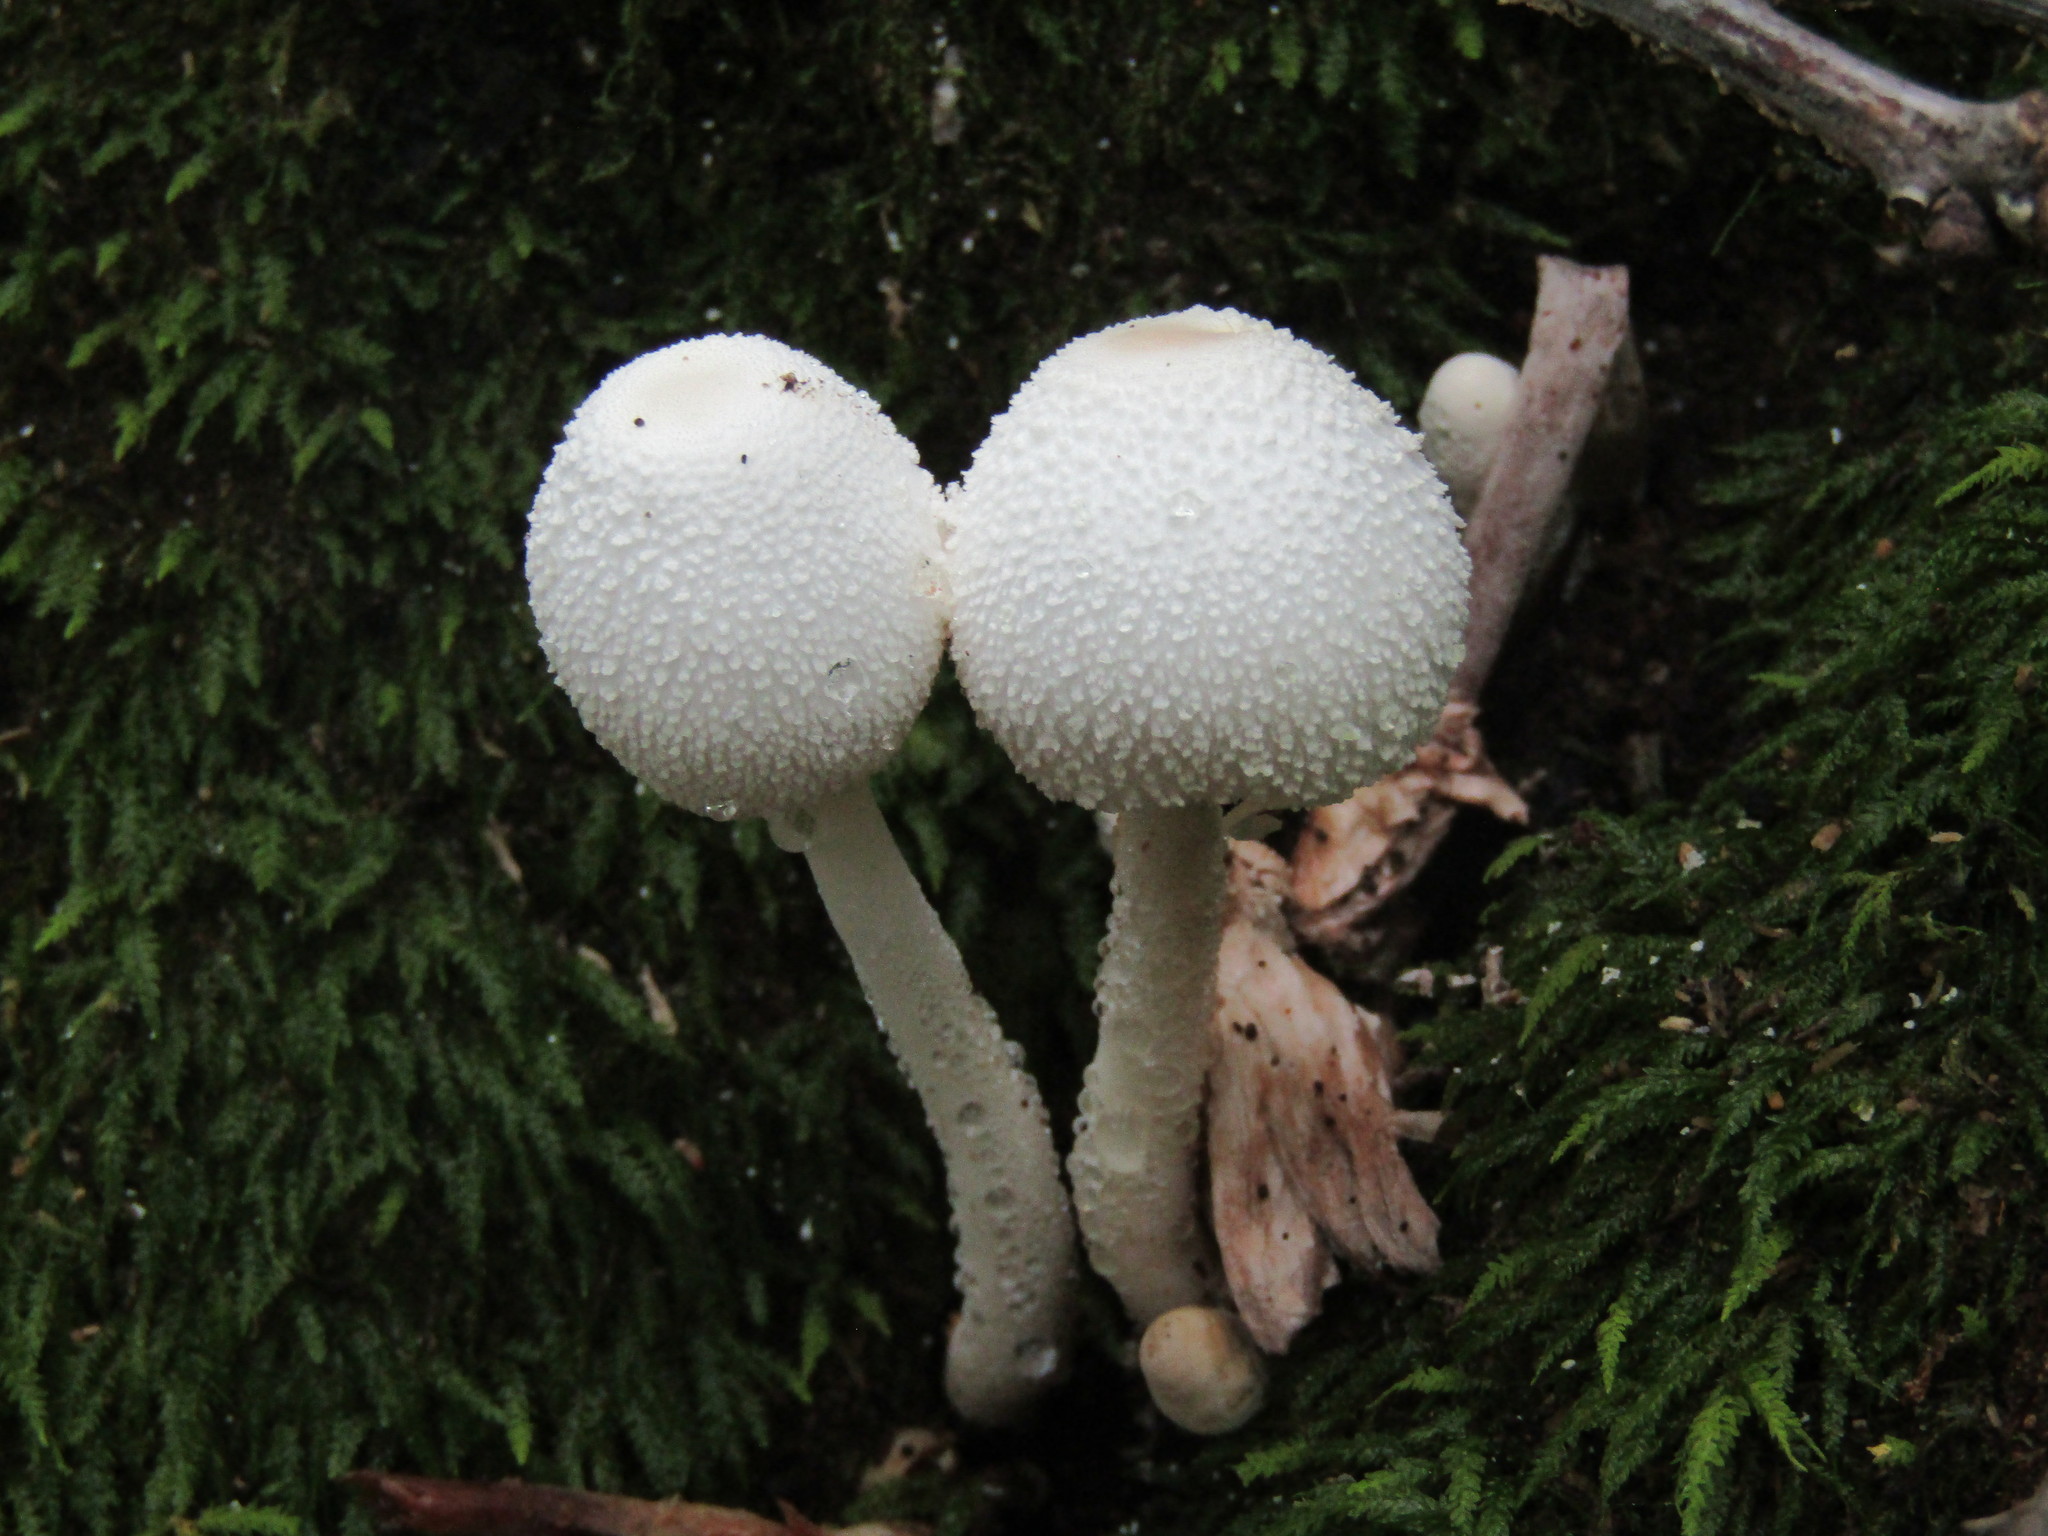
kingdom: Fungi
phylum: Basidiomycota
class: Agaricomycetes
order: Agaricales
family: Agaricaceae
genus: Leucocoprinus
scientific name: Leucocoprinus cepistipes
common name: Onion-stalk parasol
